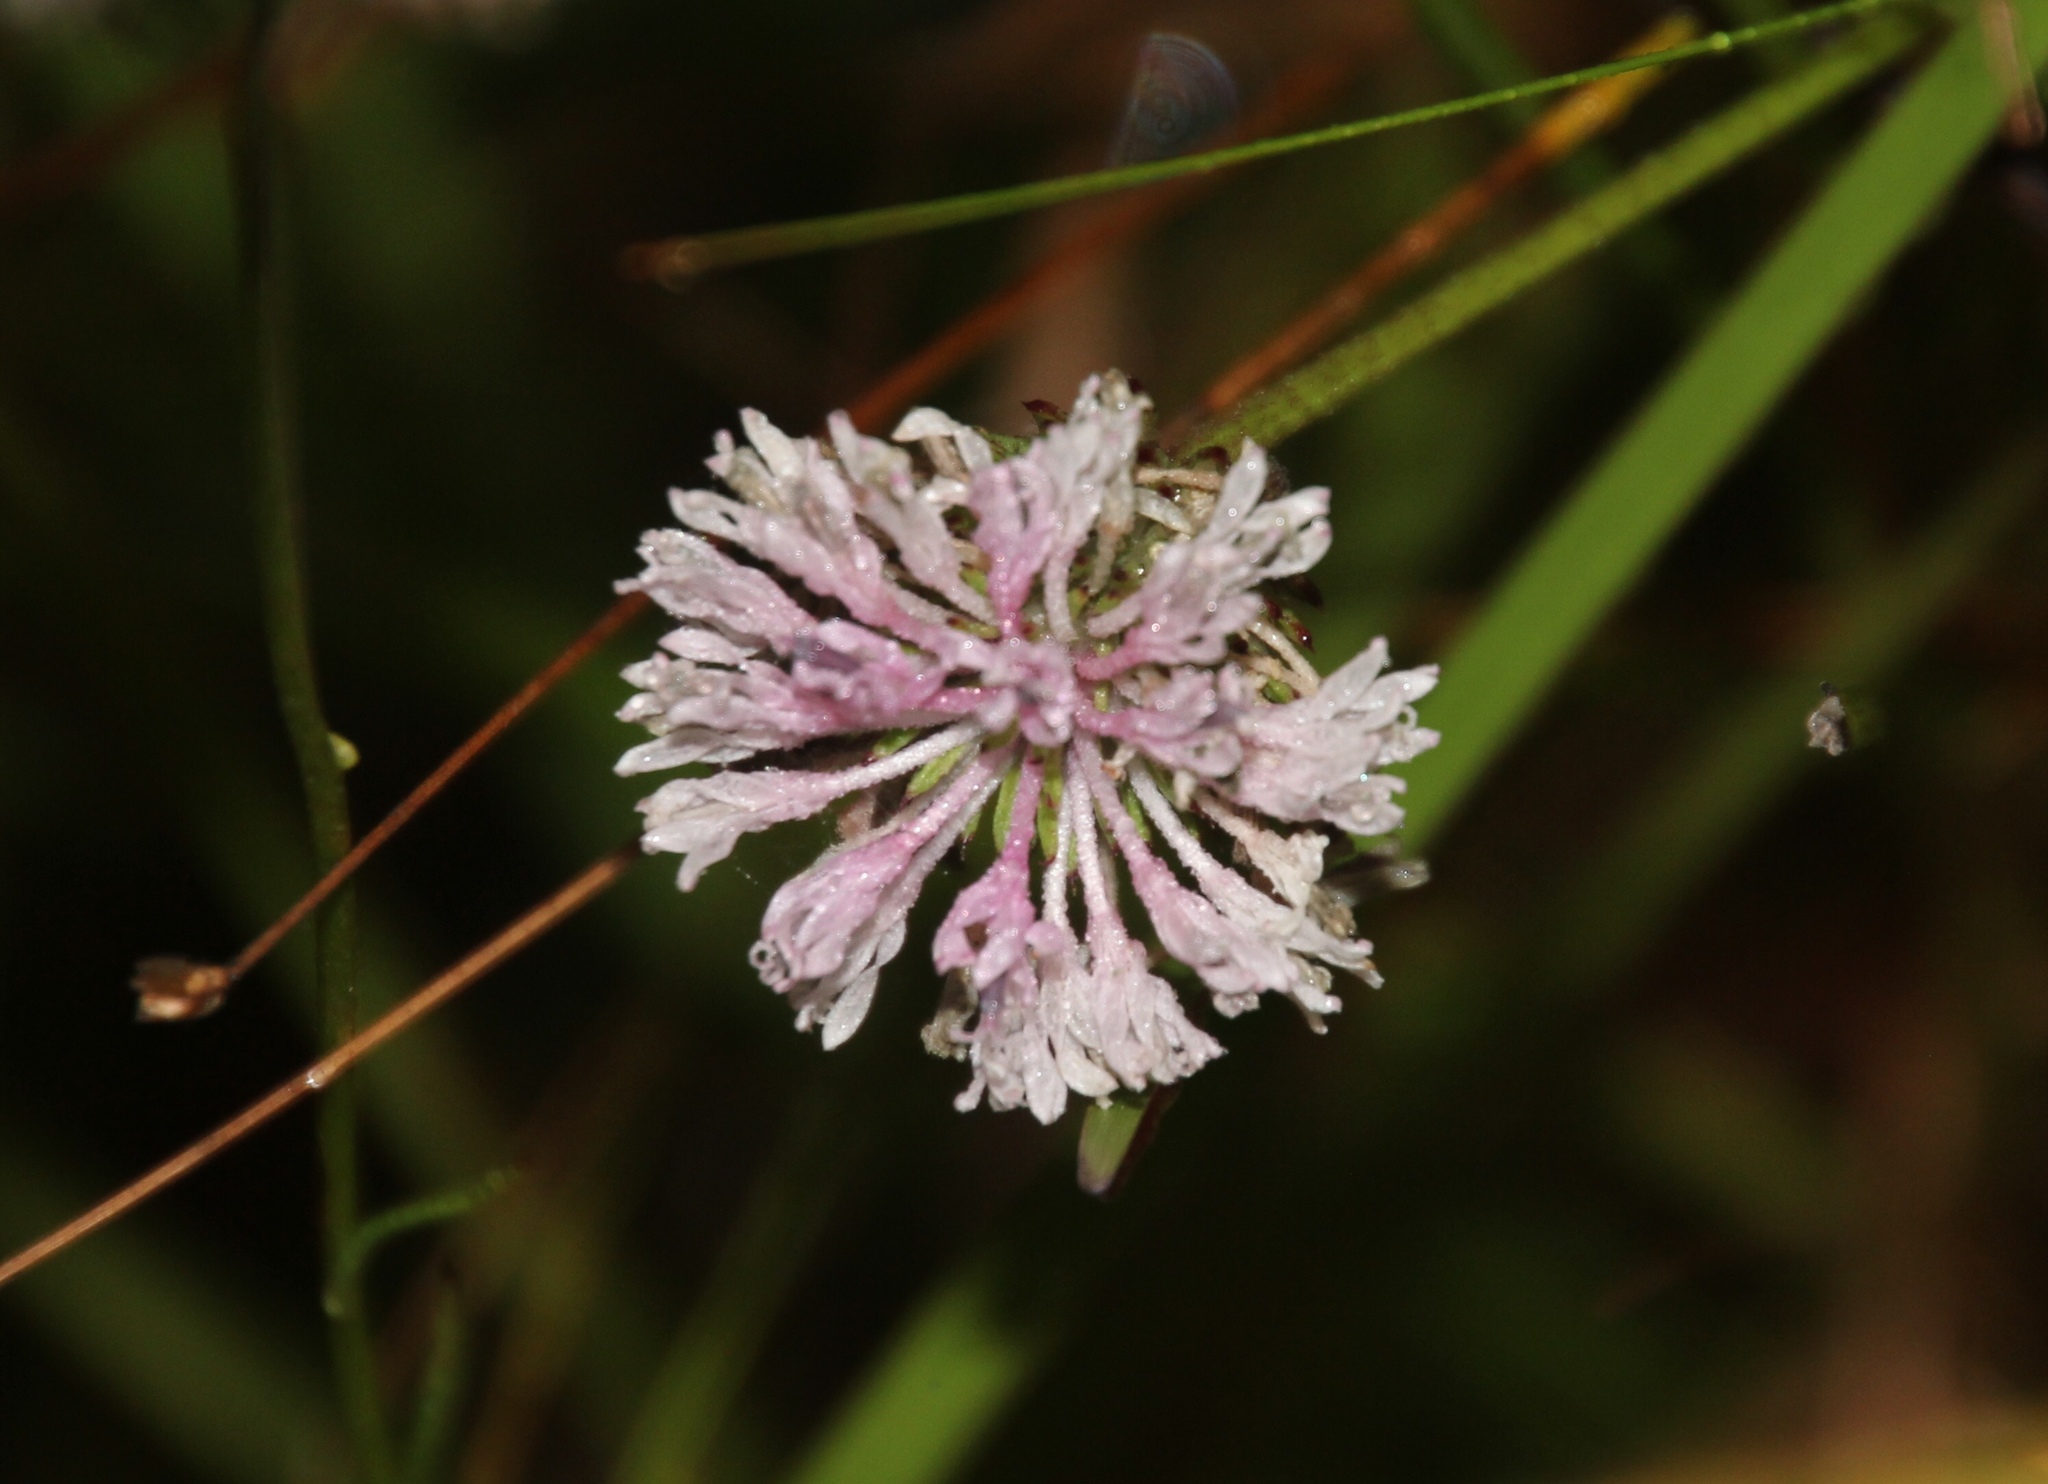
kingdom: Plantae
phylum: Tracheophyta
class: Magnoliopsida
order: Asterales
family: Asteraceae
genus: Marshallia
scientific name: Marshallia graminifolia
